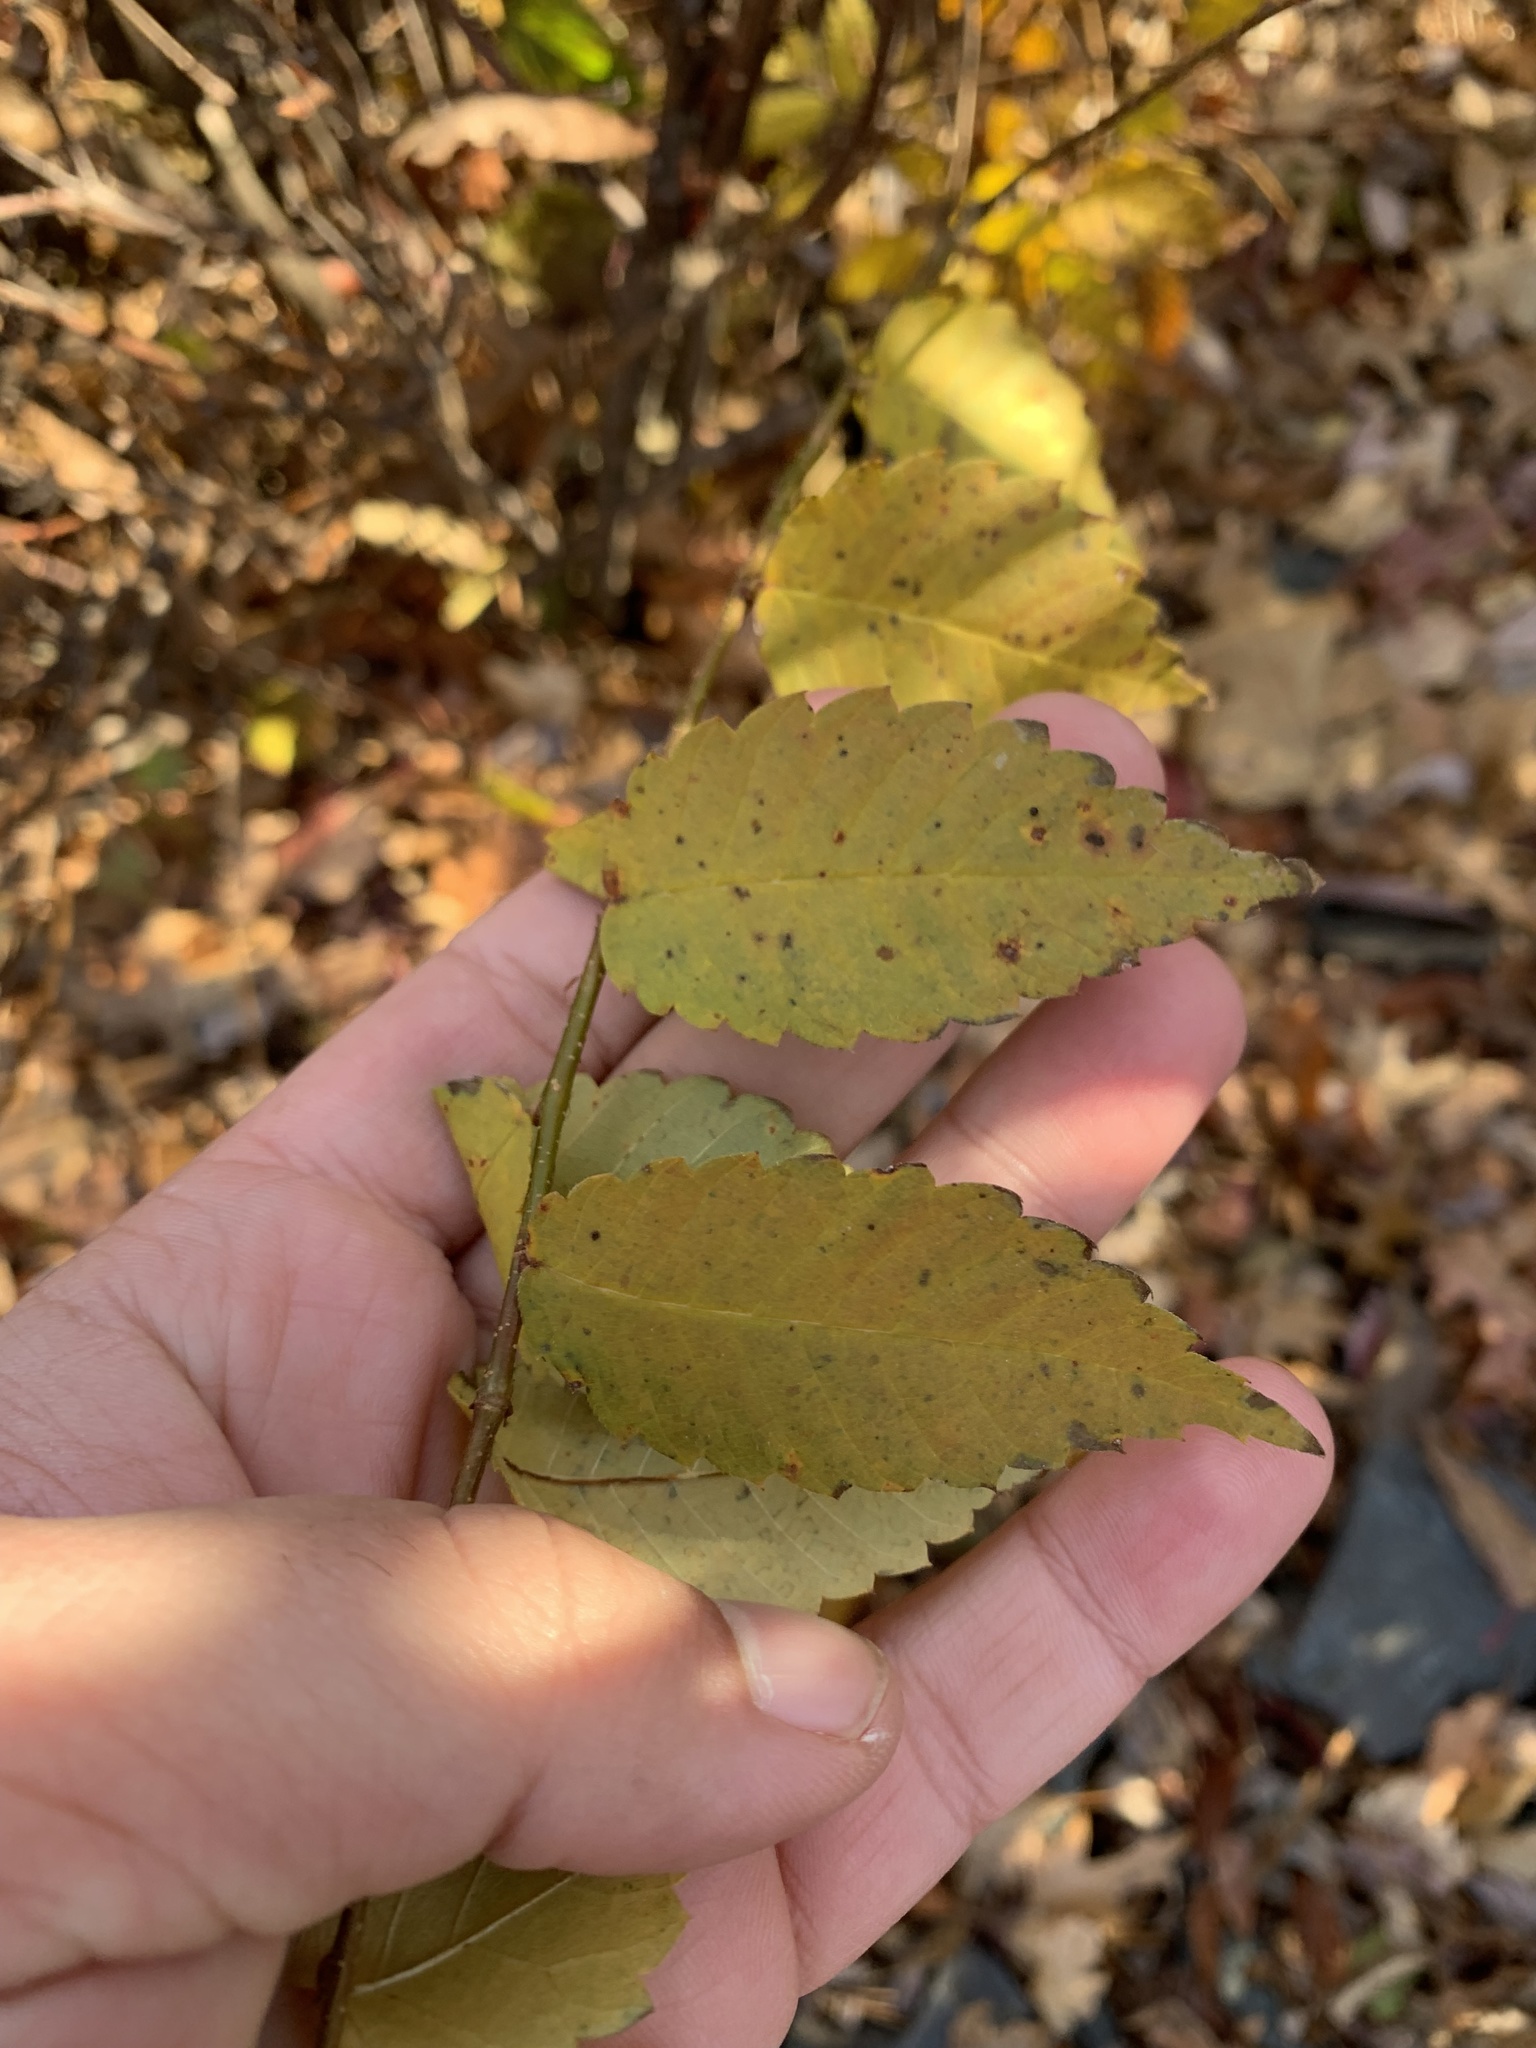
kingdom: Plantae
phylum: Tracheophyta
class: Magnoliopsida
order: Rosales
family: Ulmaceae
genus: Zelkova
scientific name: Zelkova serrata
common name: Japanese zelkova
